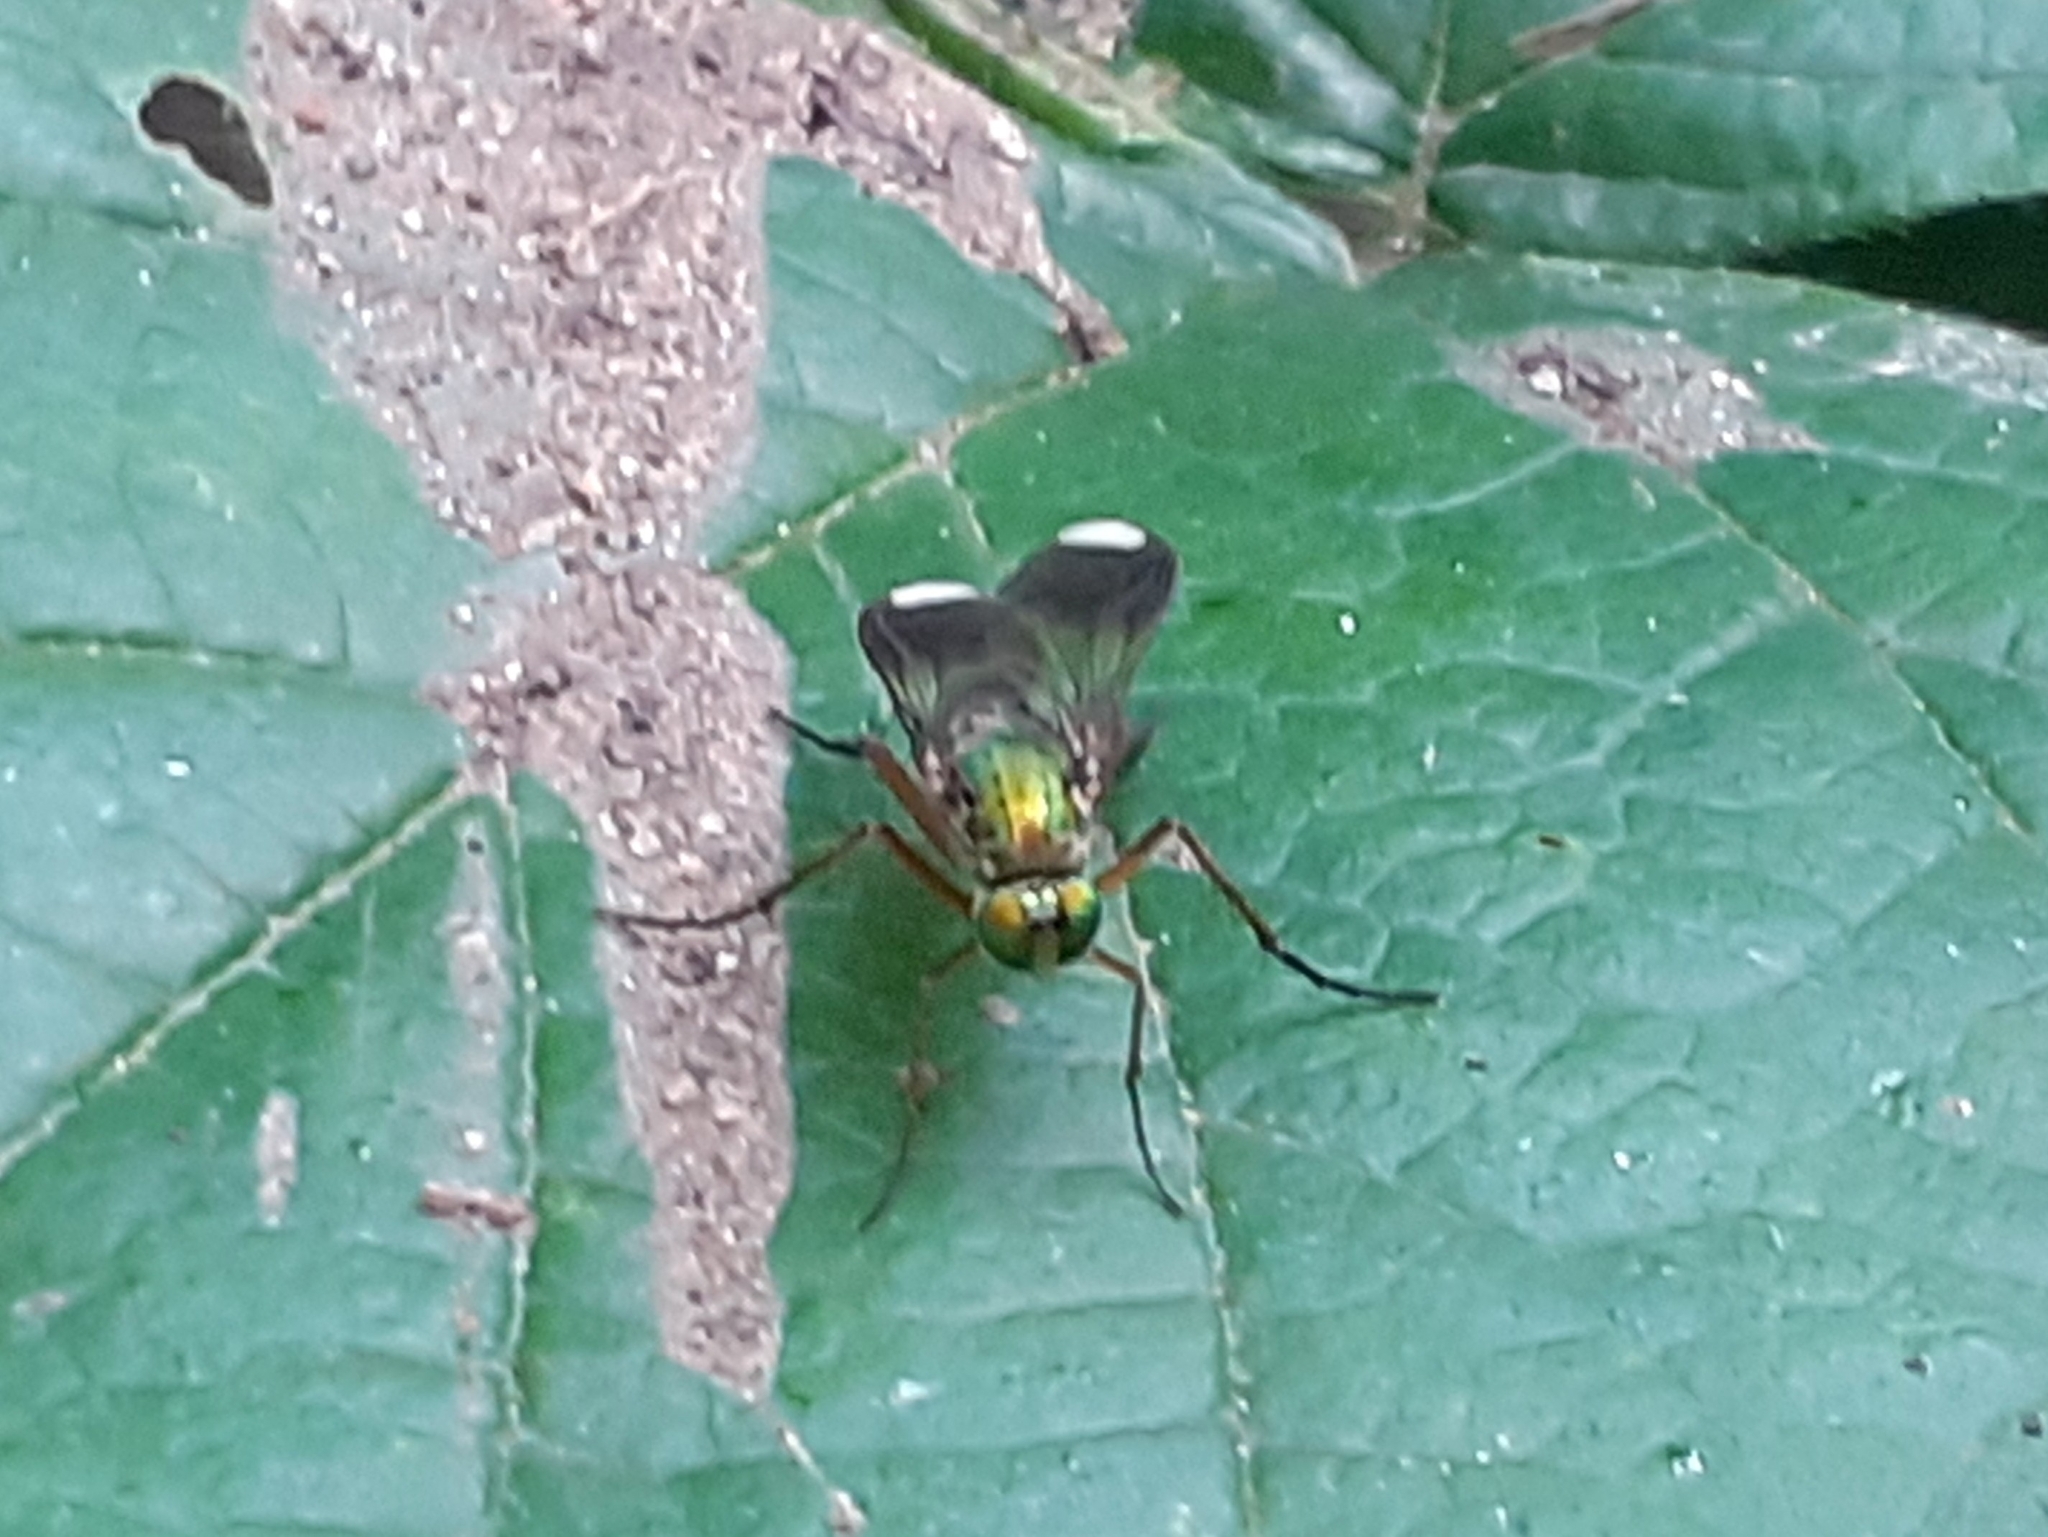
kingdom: Animalia
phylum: Arthropoda
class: Insecta
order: Diptera
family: Dolichopodidae
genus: Poecilobothrus
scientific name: Poecilobothrus nobilitatus
